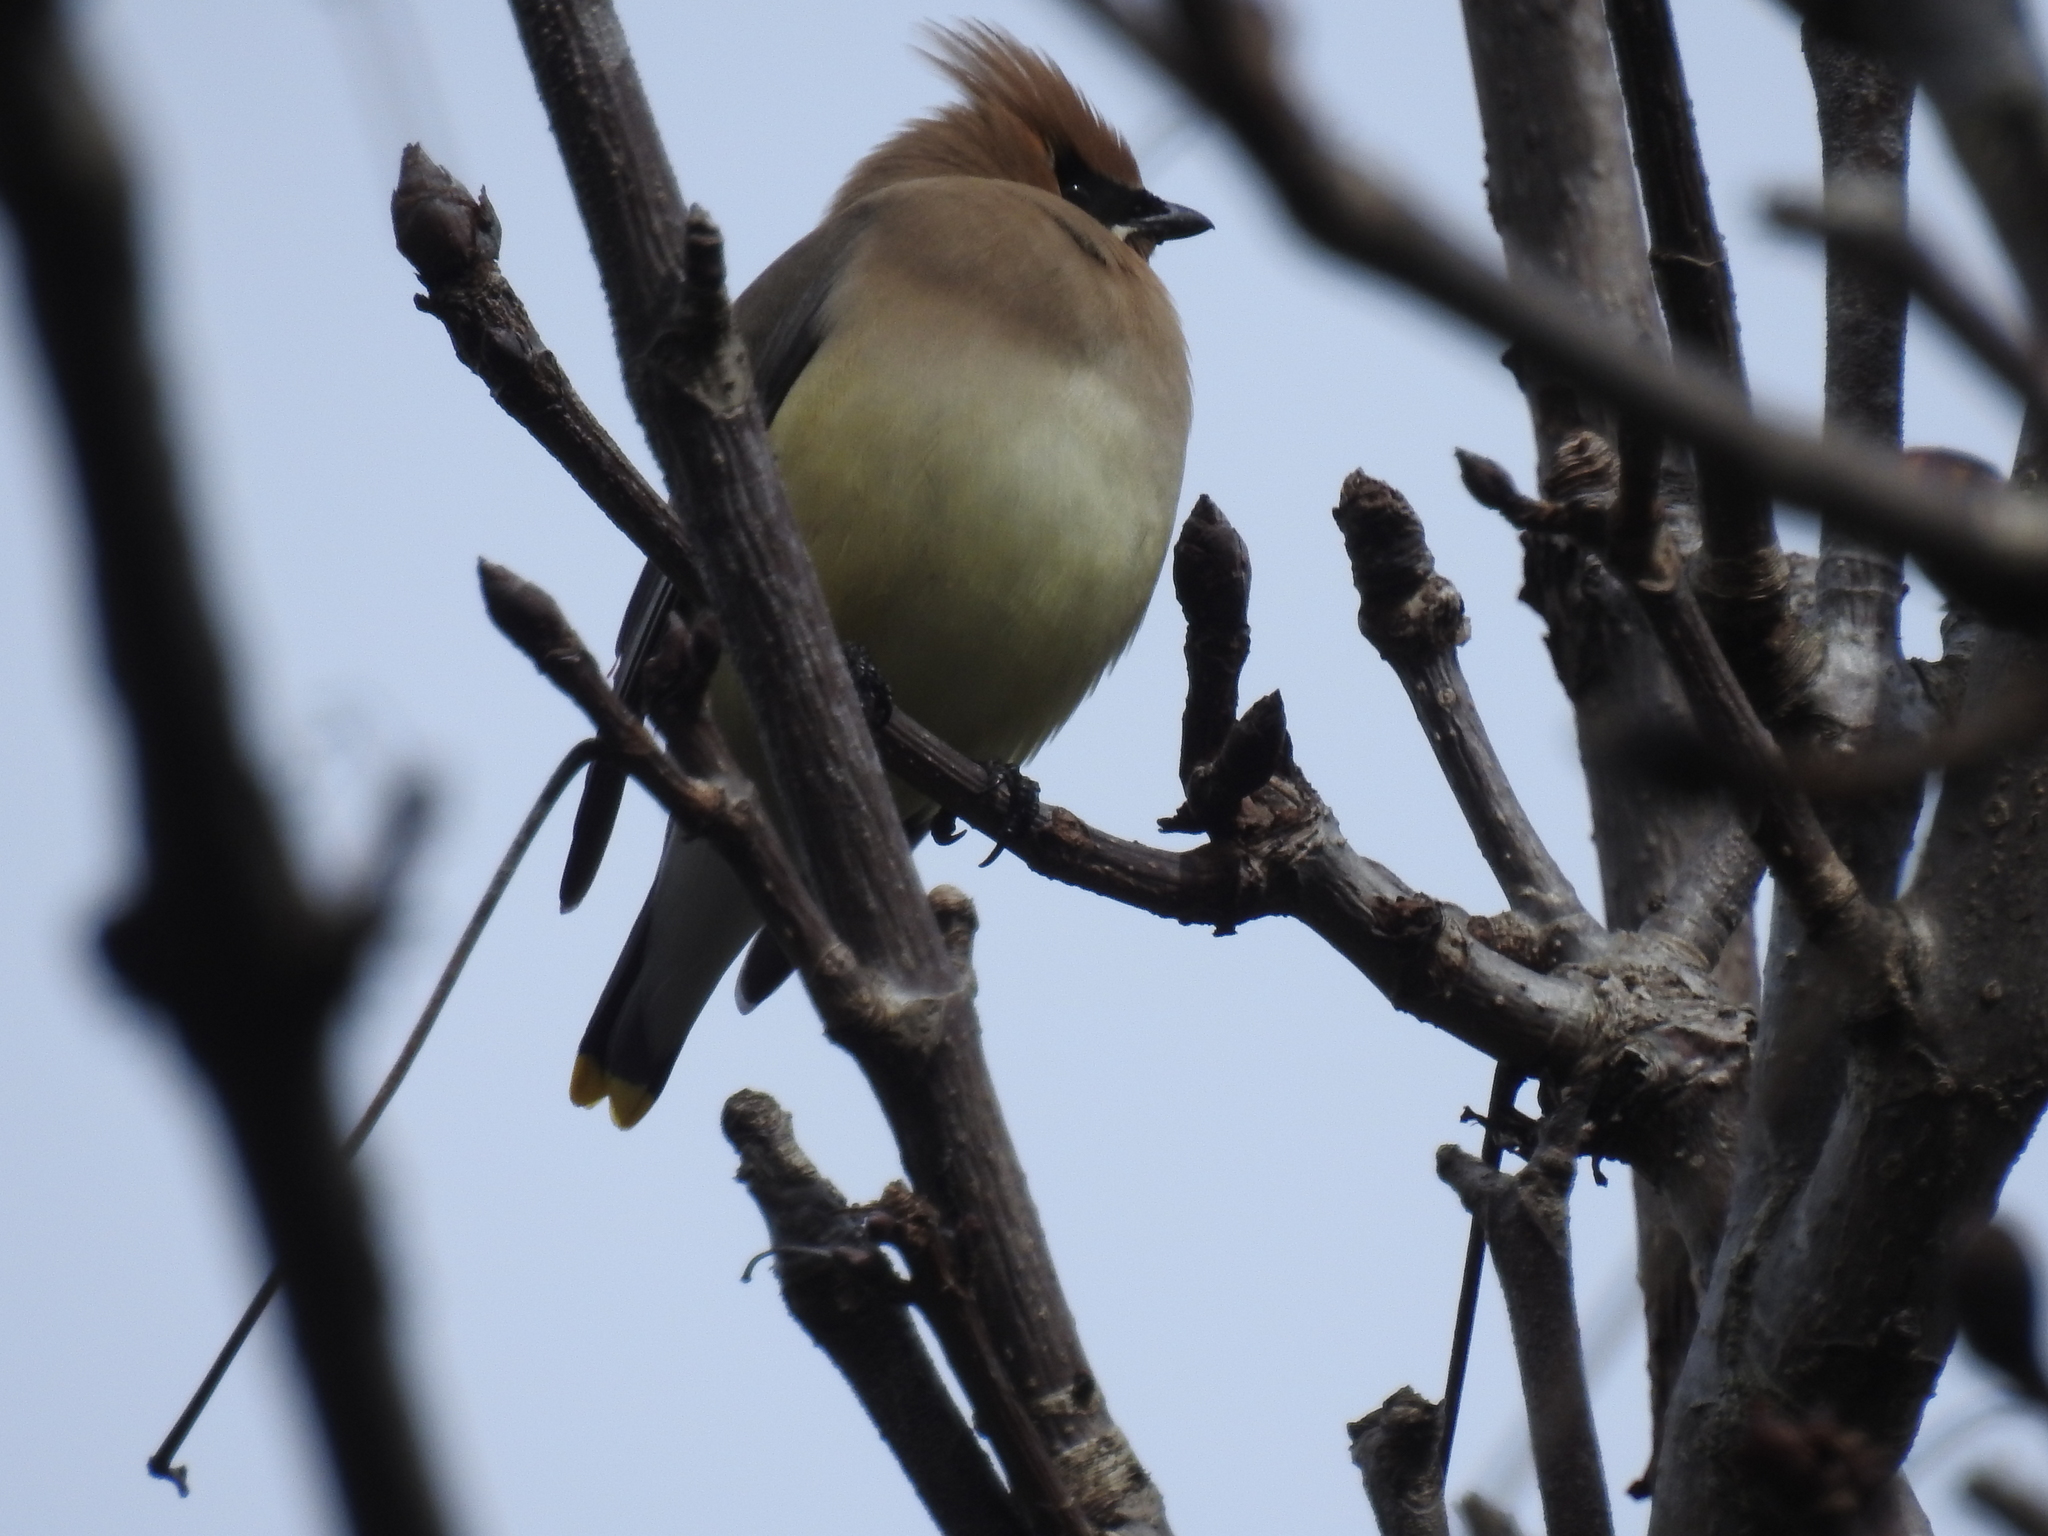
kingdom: Animalia
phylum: Chordata
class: Aves
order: Passeriformes
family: Bombycillidae
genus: Bombycilla
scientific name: Bombycilla cedrorum
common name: Cedar waxwing
